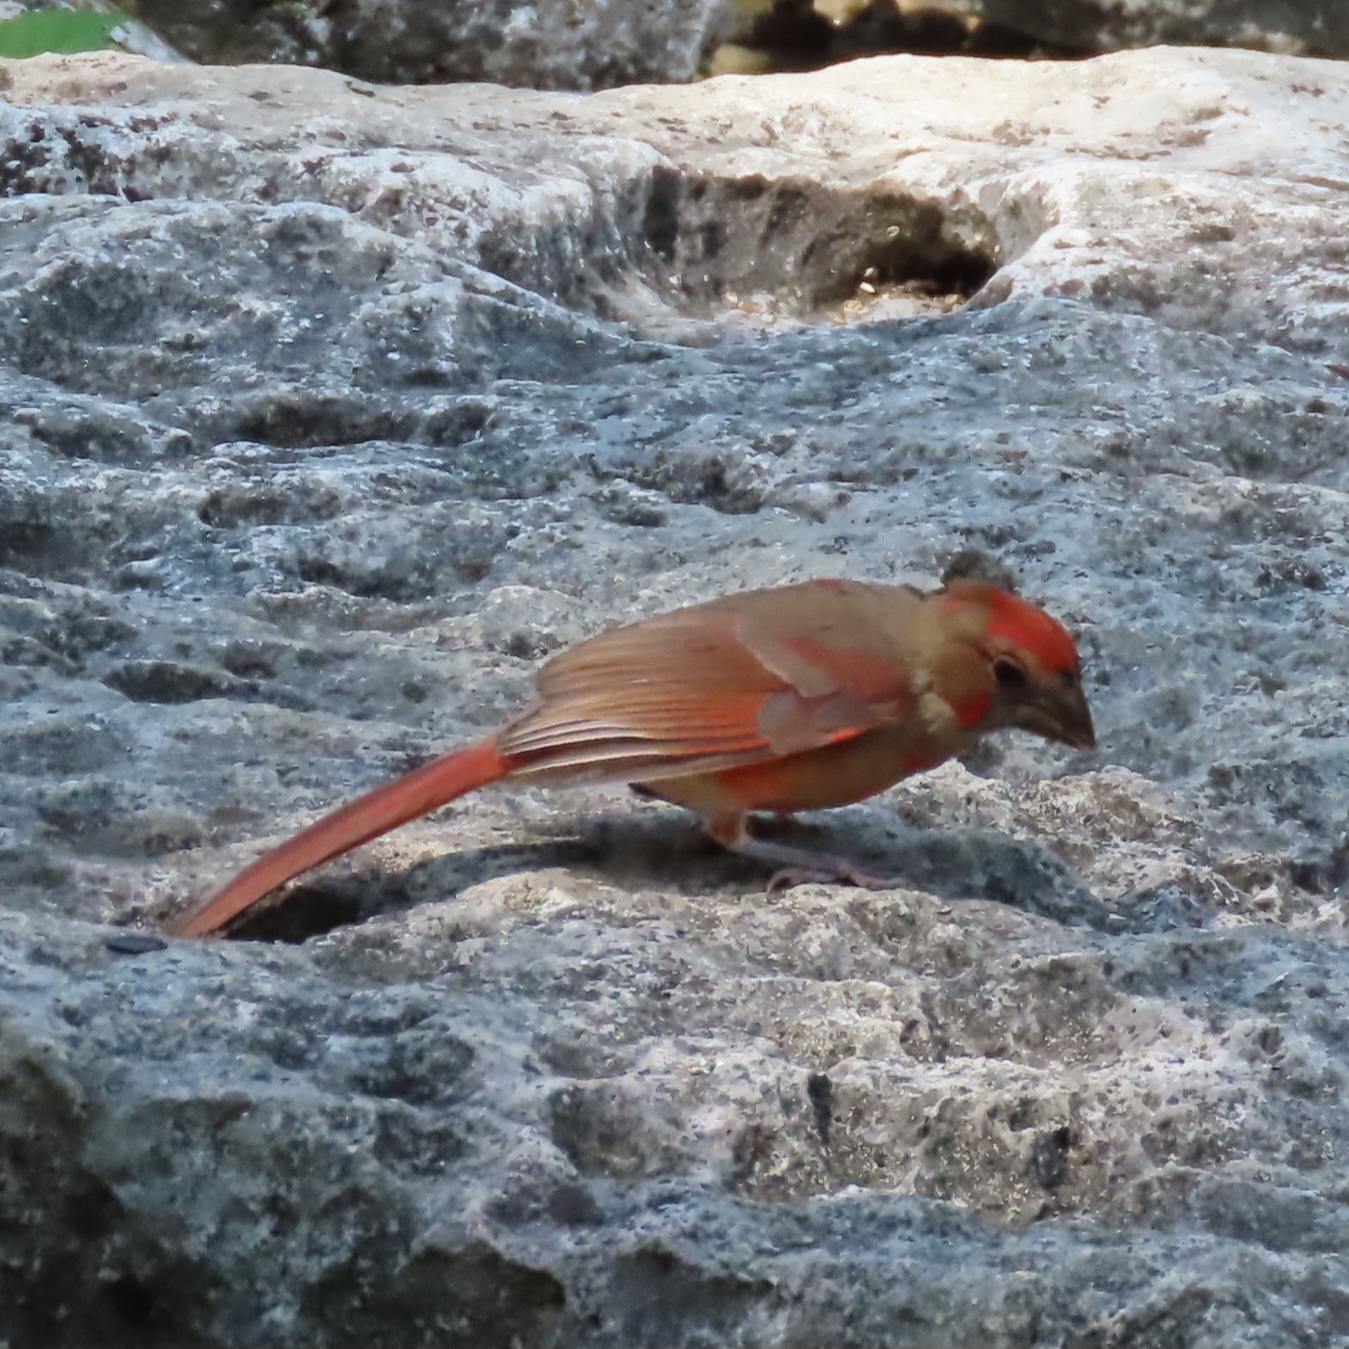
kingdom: Animalia
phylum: Chordata
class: Aves
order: Passeriformes
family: Cardinalidae
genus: Cardinalis
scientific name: Cardinalis cardinalis
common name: Northern cardinal
